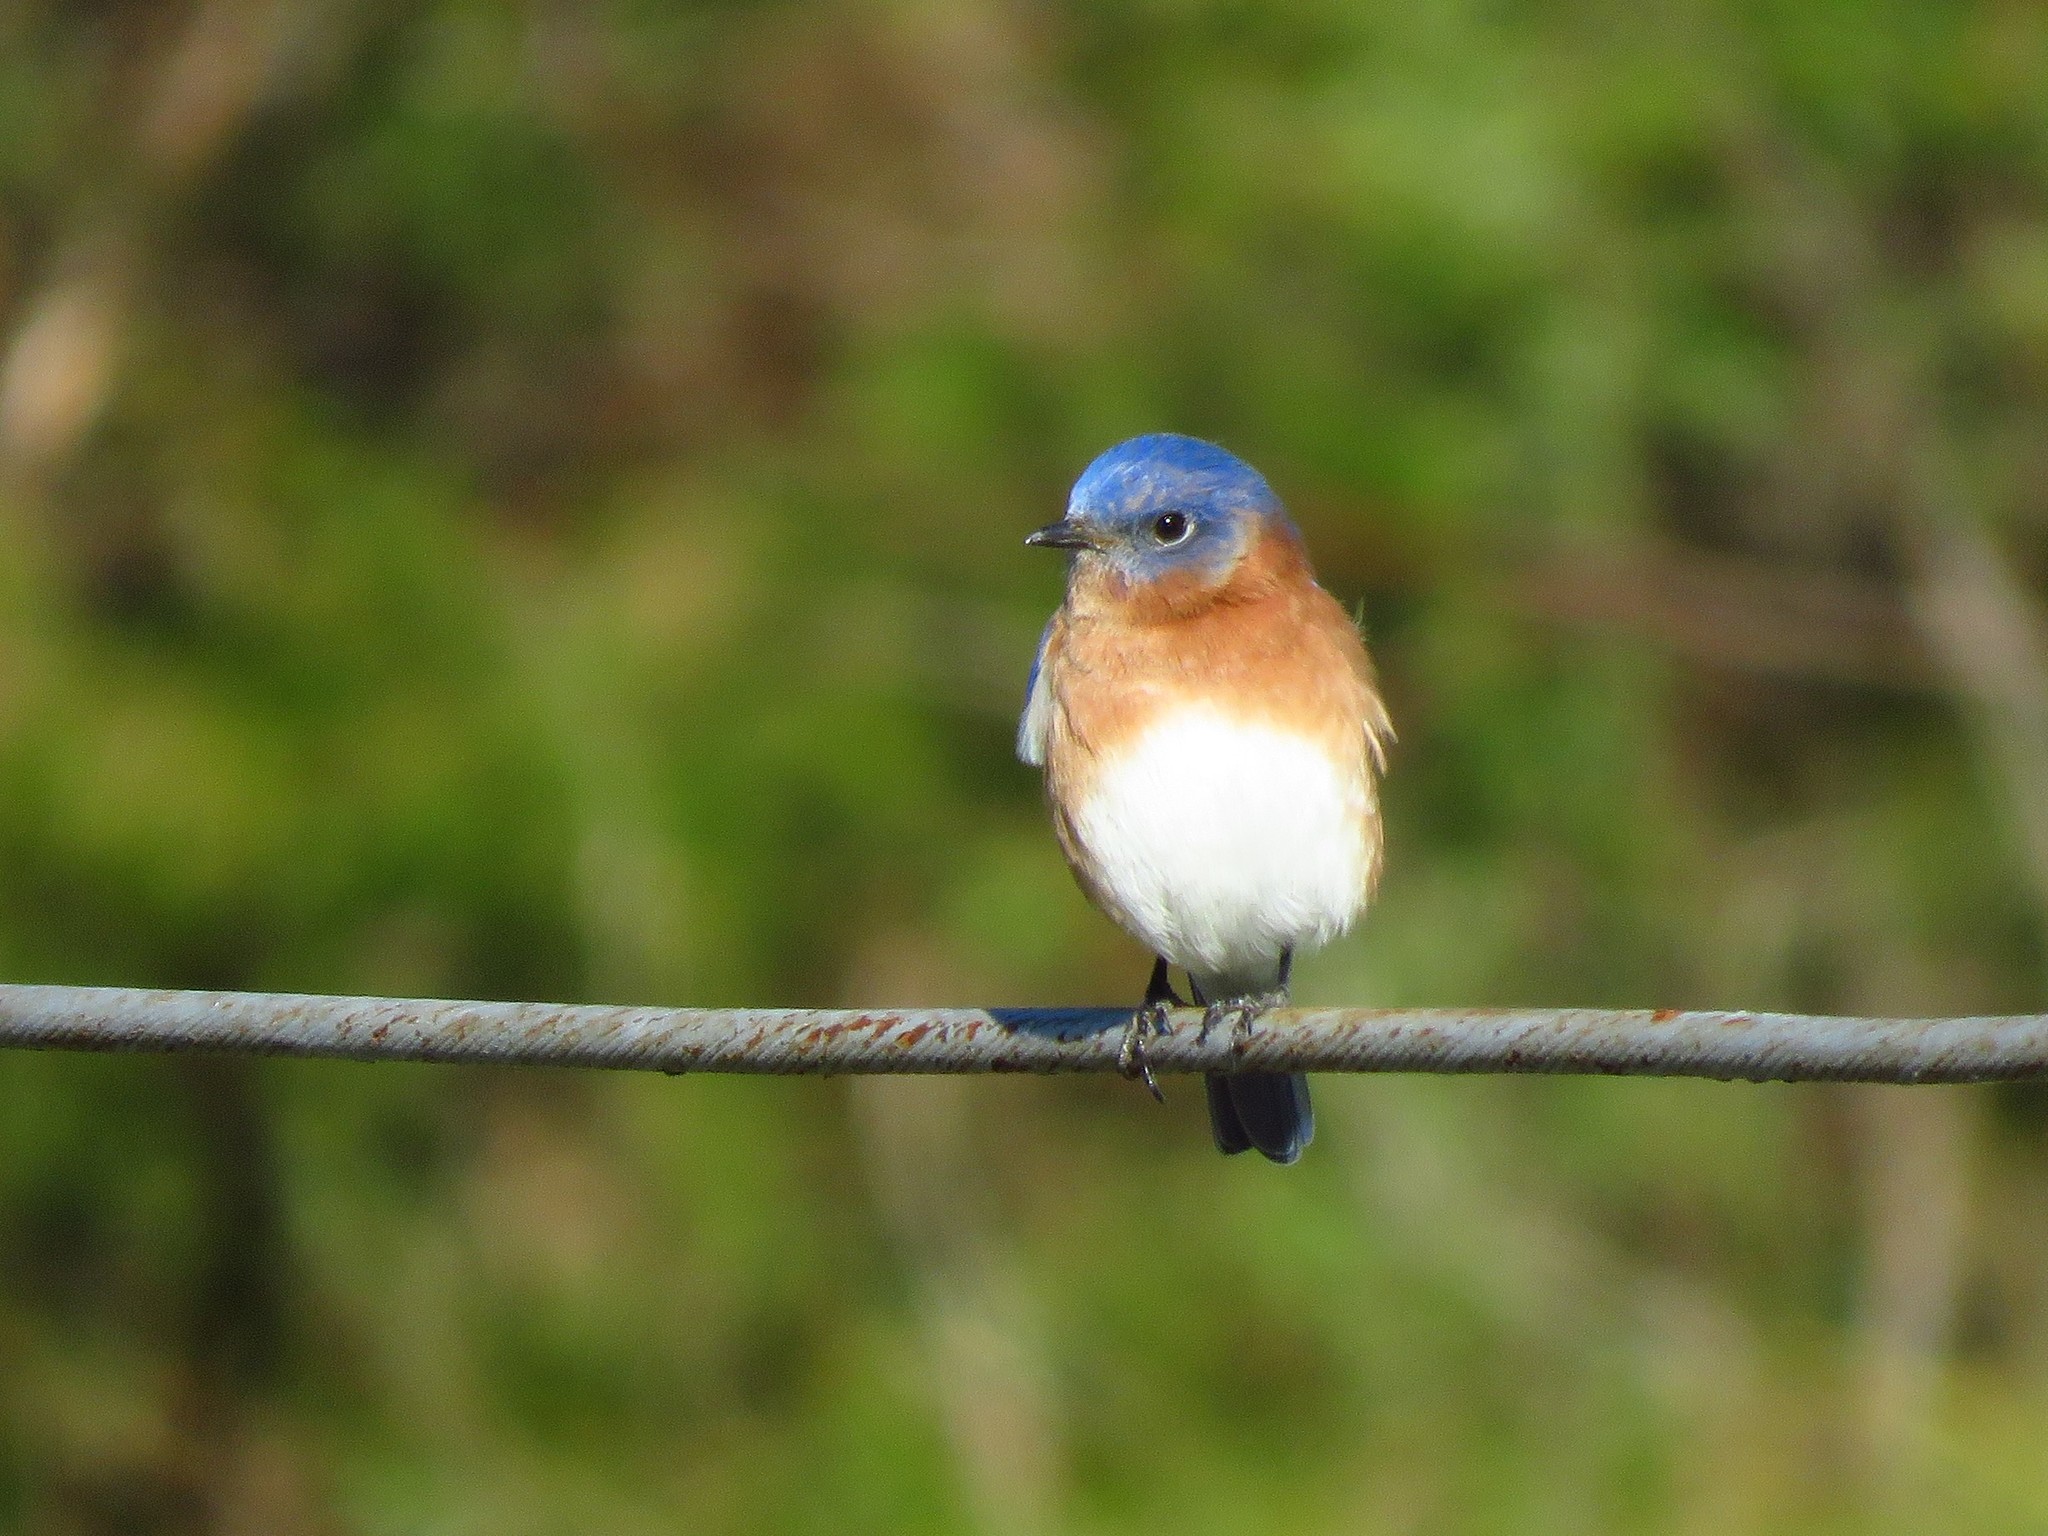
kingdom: Animalia
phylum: Chordata
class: Aves
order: Passeriformes
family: Turdidae
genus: Sialia
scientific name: Sialia sialis
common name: Eastern bluebird
